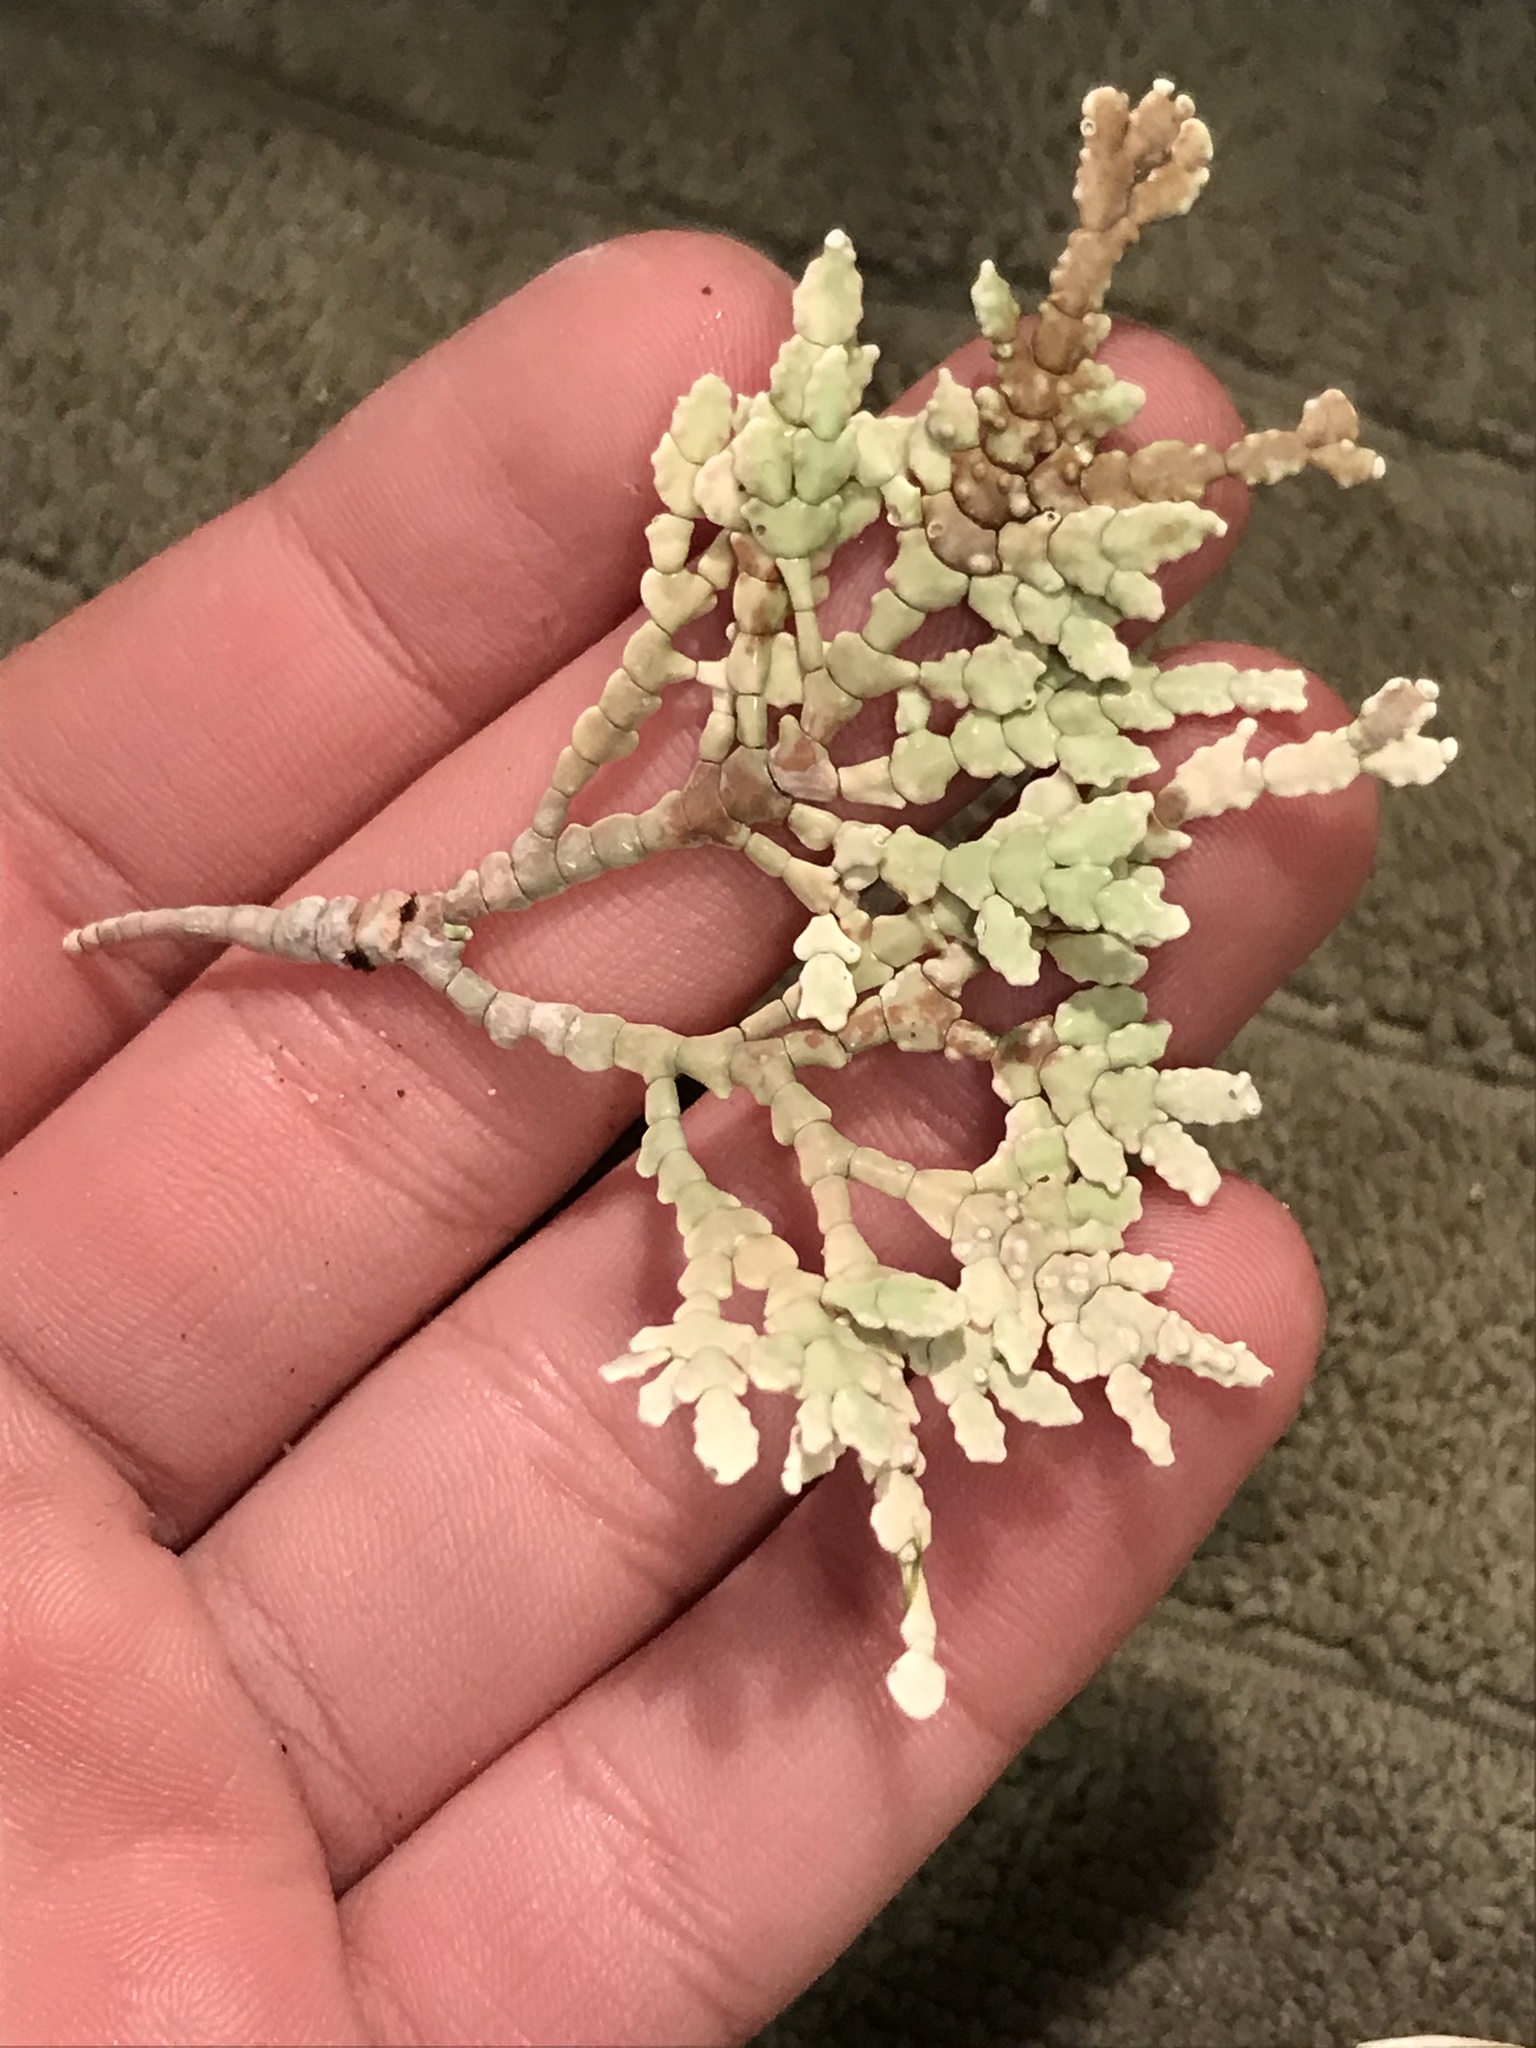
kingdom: Plantae
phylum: Rhodophyta
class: Florideophyceae
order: Corallinales
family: Corallinaceae
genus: Calliarthron
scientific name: Calliarthron tuberculosum
